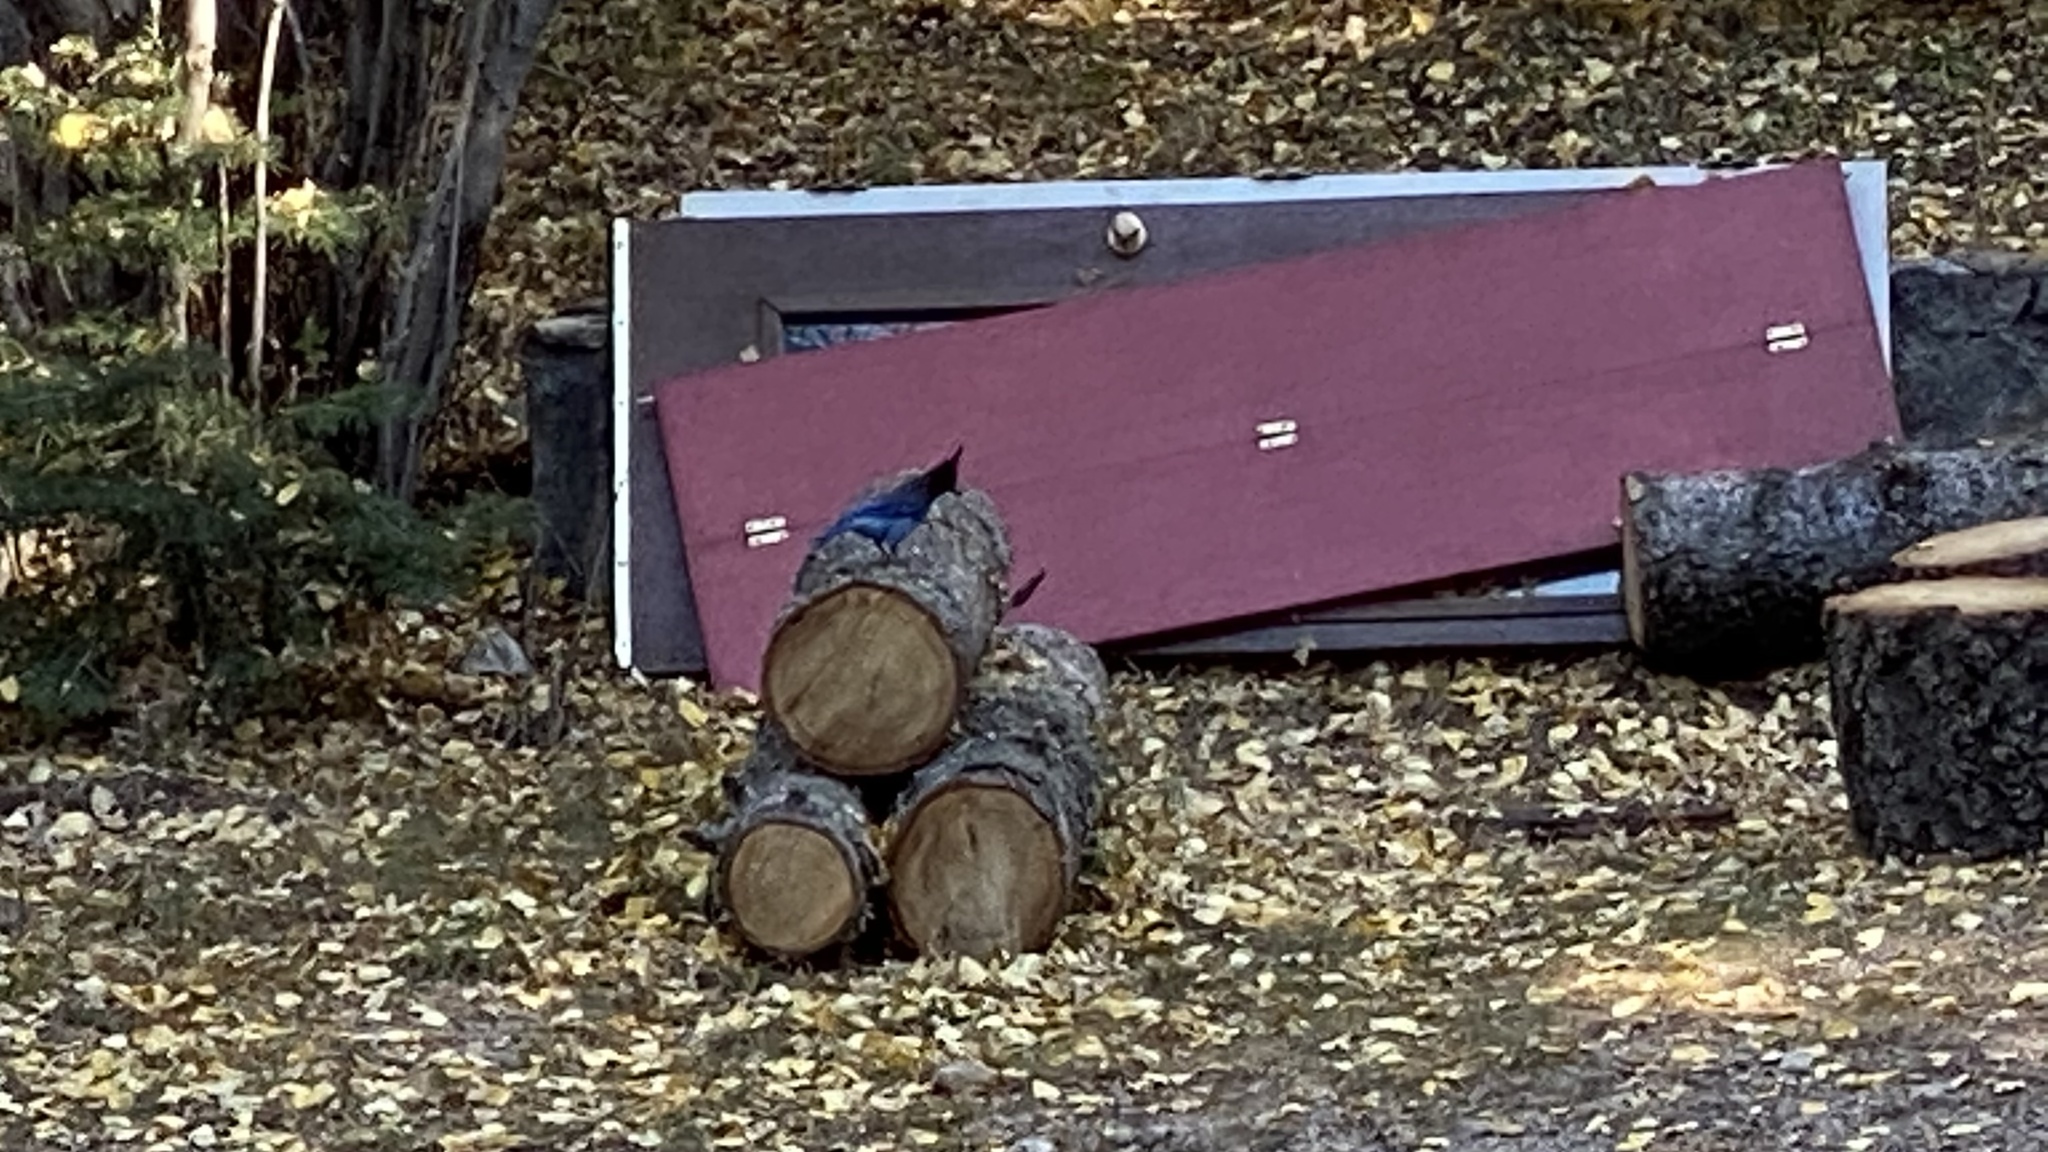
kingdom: Animalia
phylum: Chordata
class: Aves
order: Passeriformes
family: Corvidae
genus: Cyanocitta
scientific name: Cyanocitta stelleri
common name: Steller's jay
